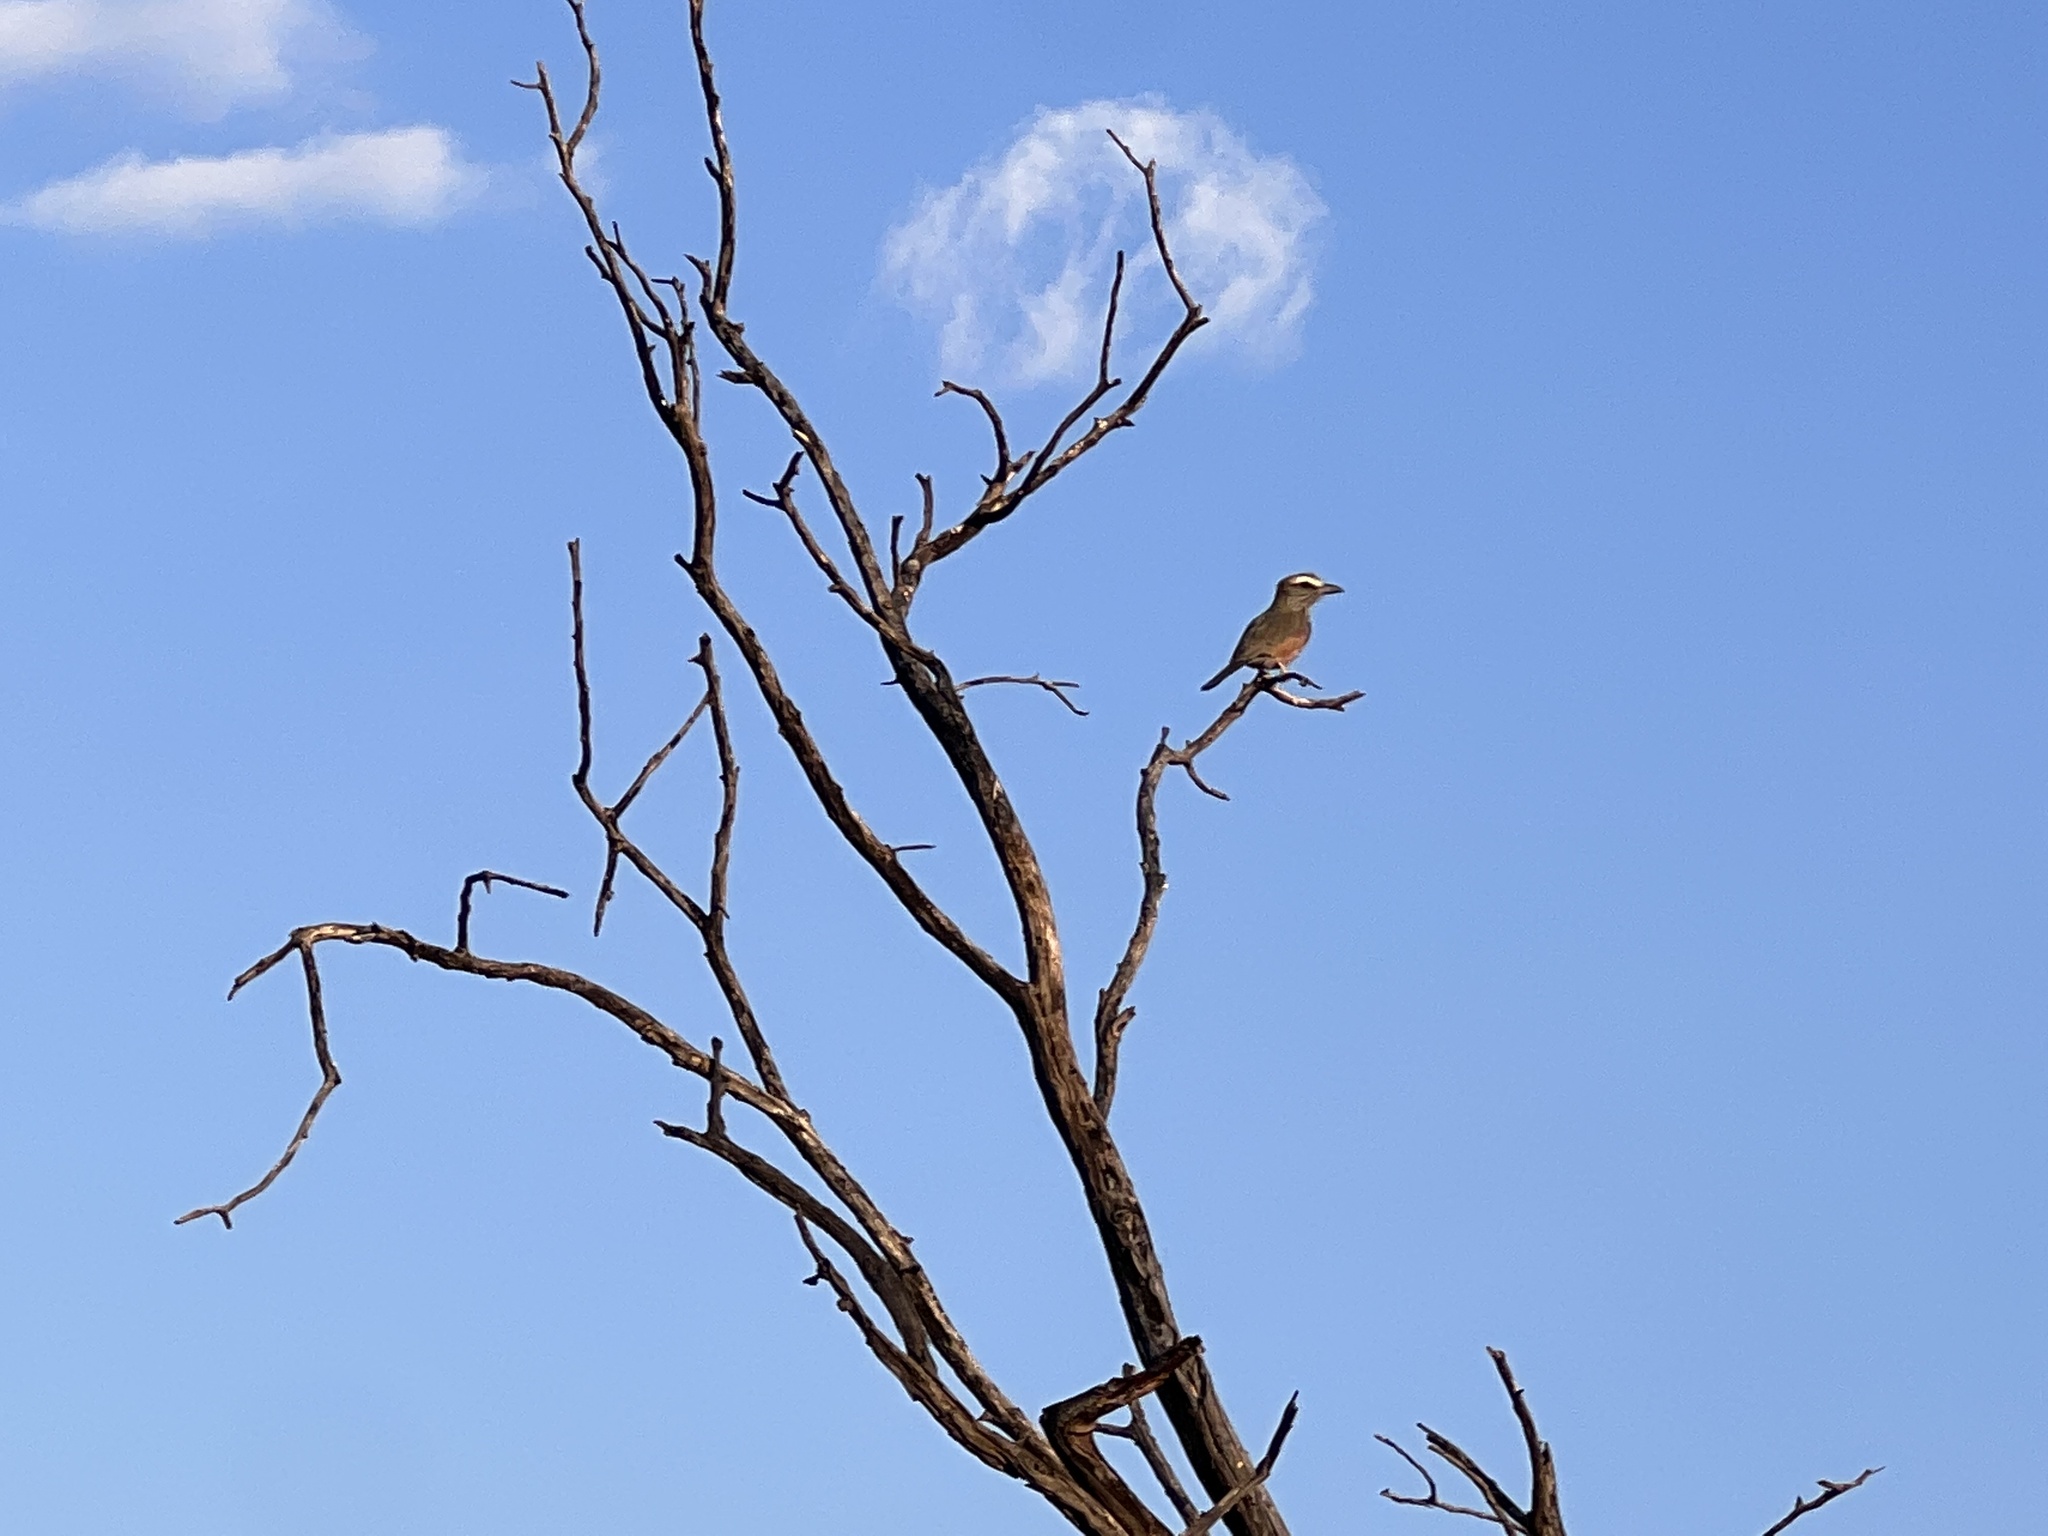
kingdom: Animalia
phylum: Chordata
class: Aves
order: Coraciiformes
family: Coraciidae
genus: Coracias
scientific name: Coracias naevius
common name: Purple roller
